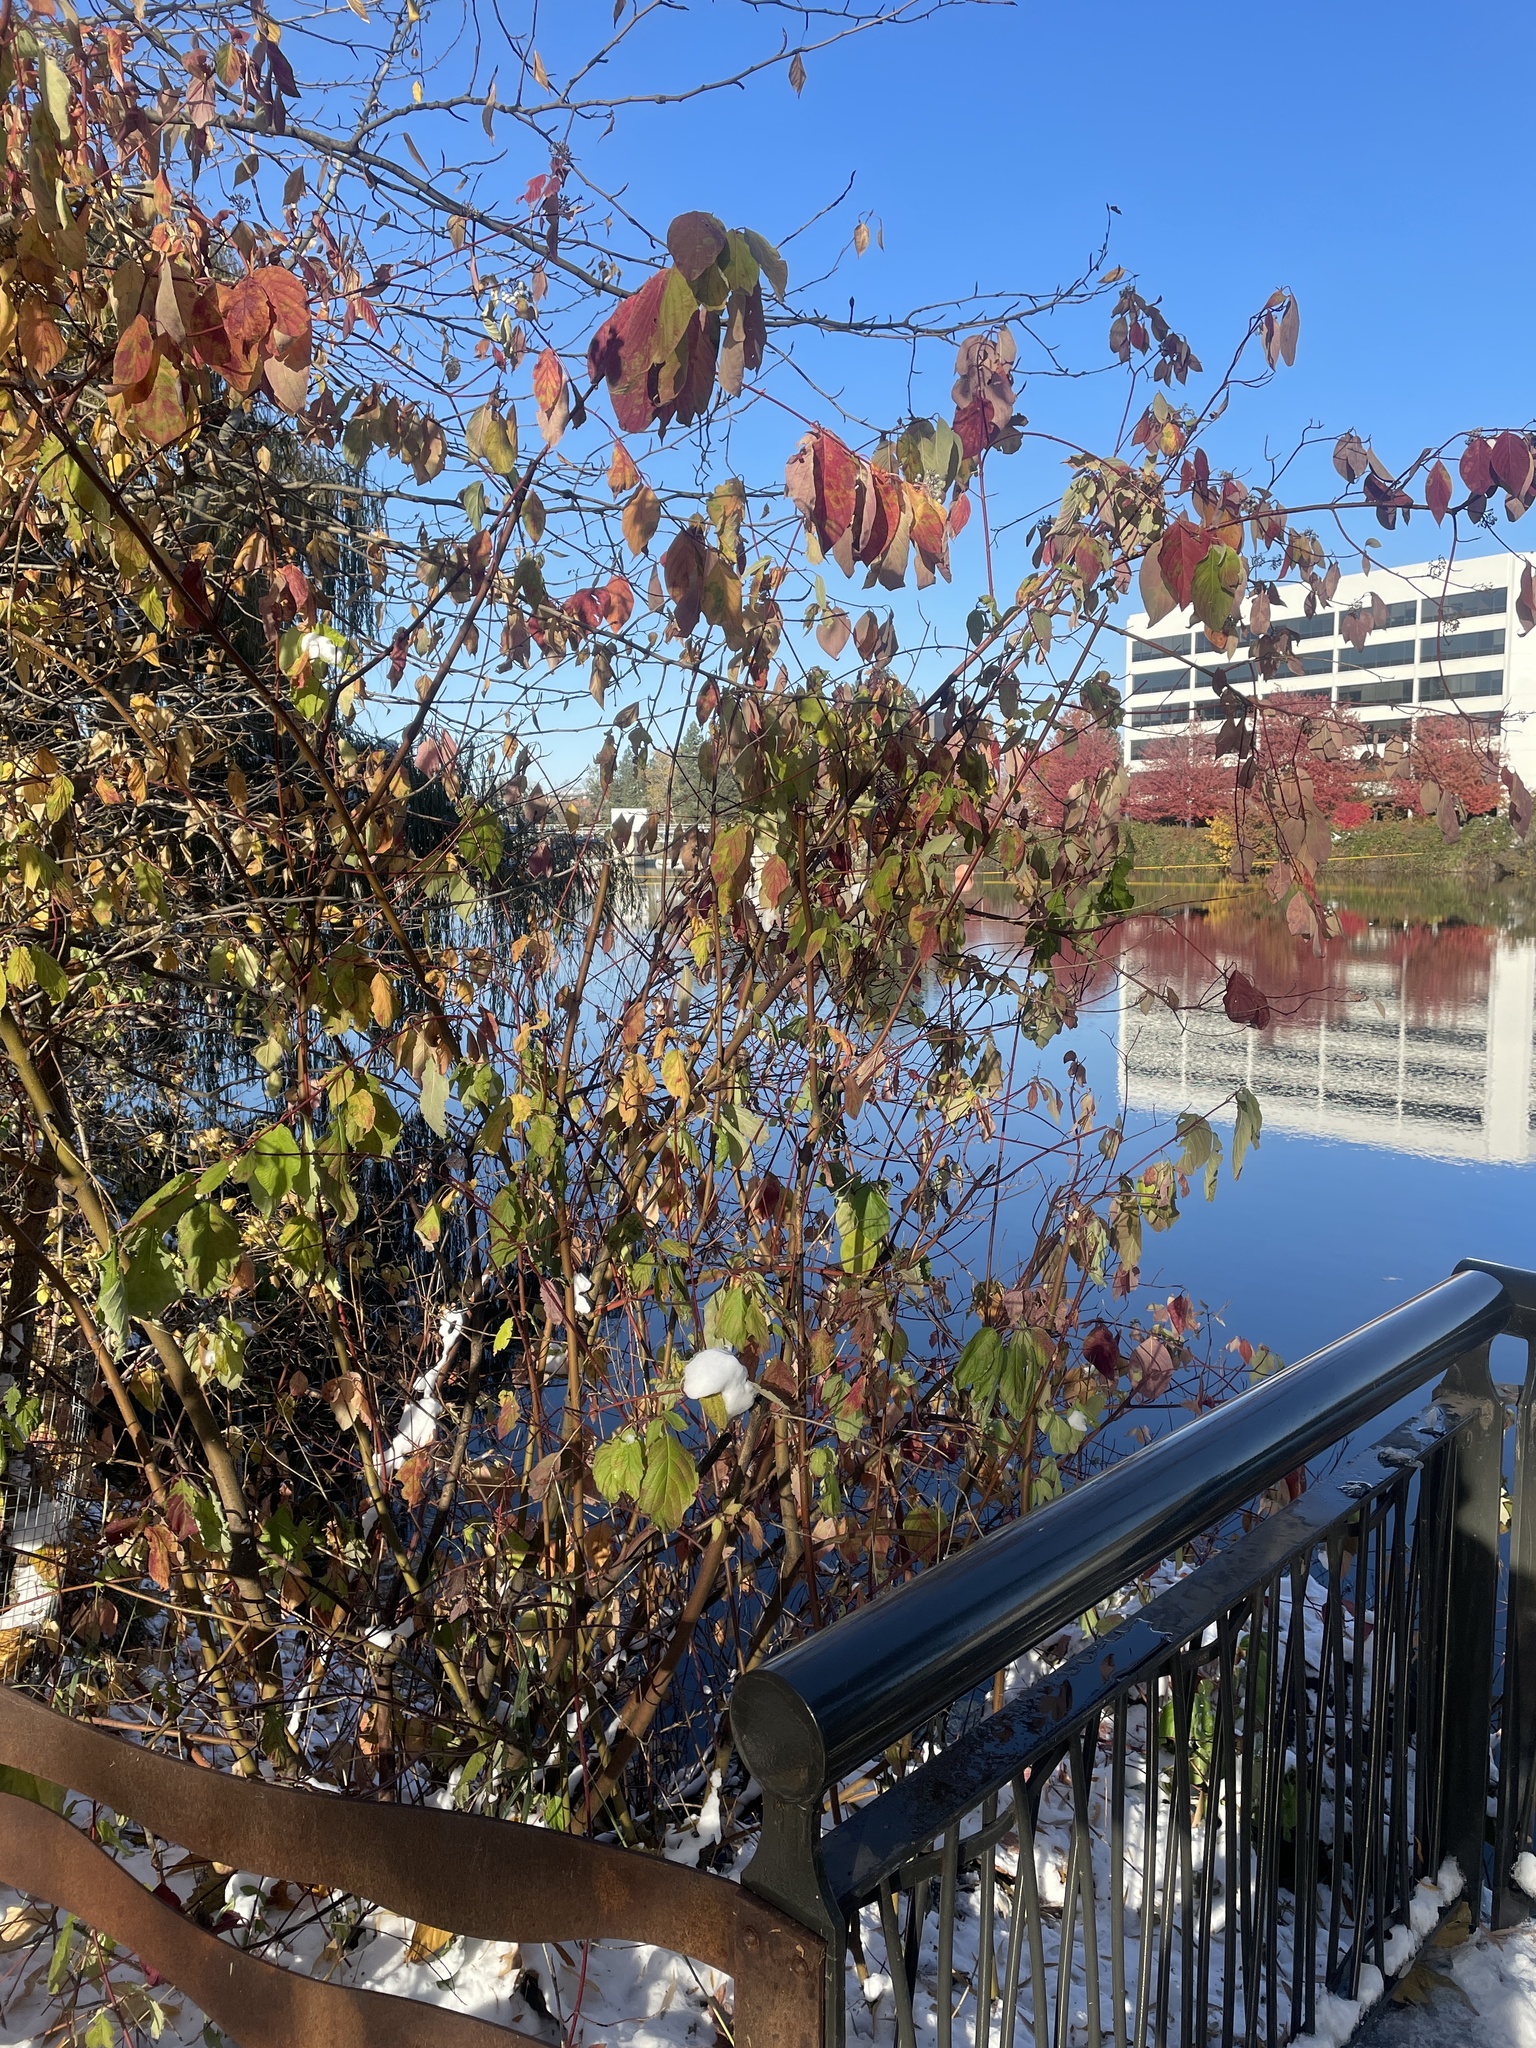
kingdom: Plantae
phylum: Tracheophyta
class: Magnoliopsida
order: Cornales
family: Cornaceae
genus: Cornus
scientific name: Cornus sericea
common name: Red-osier dogwood
